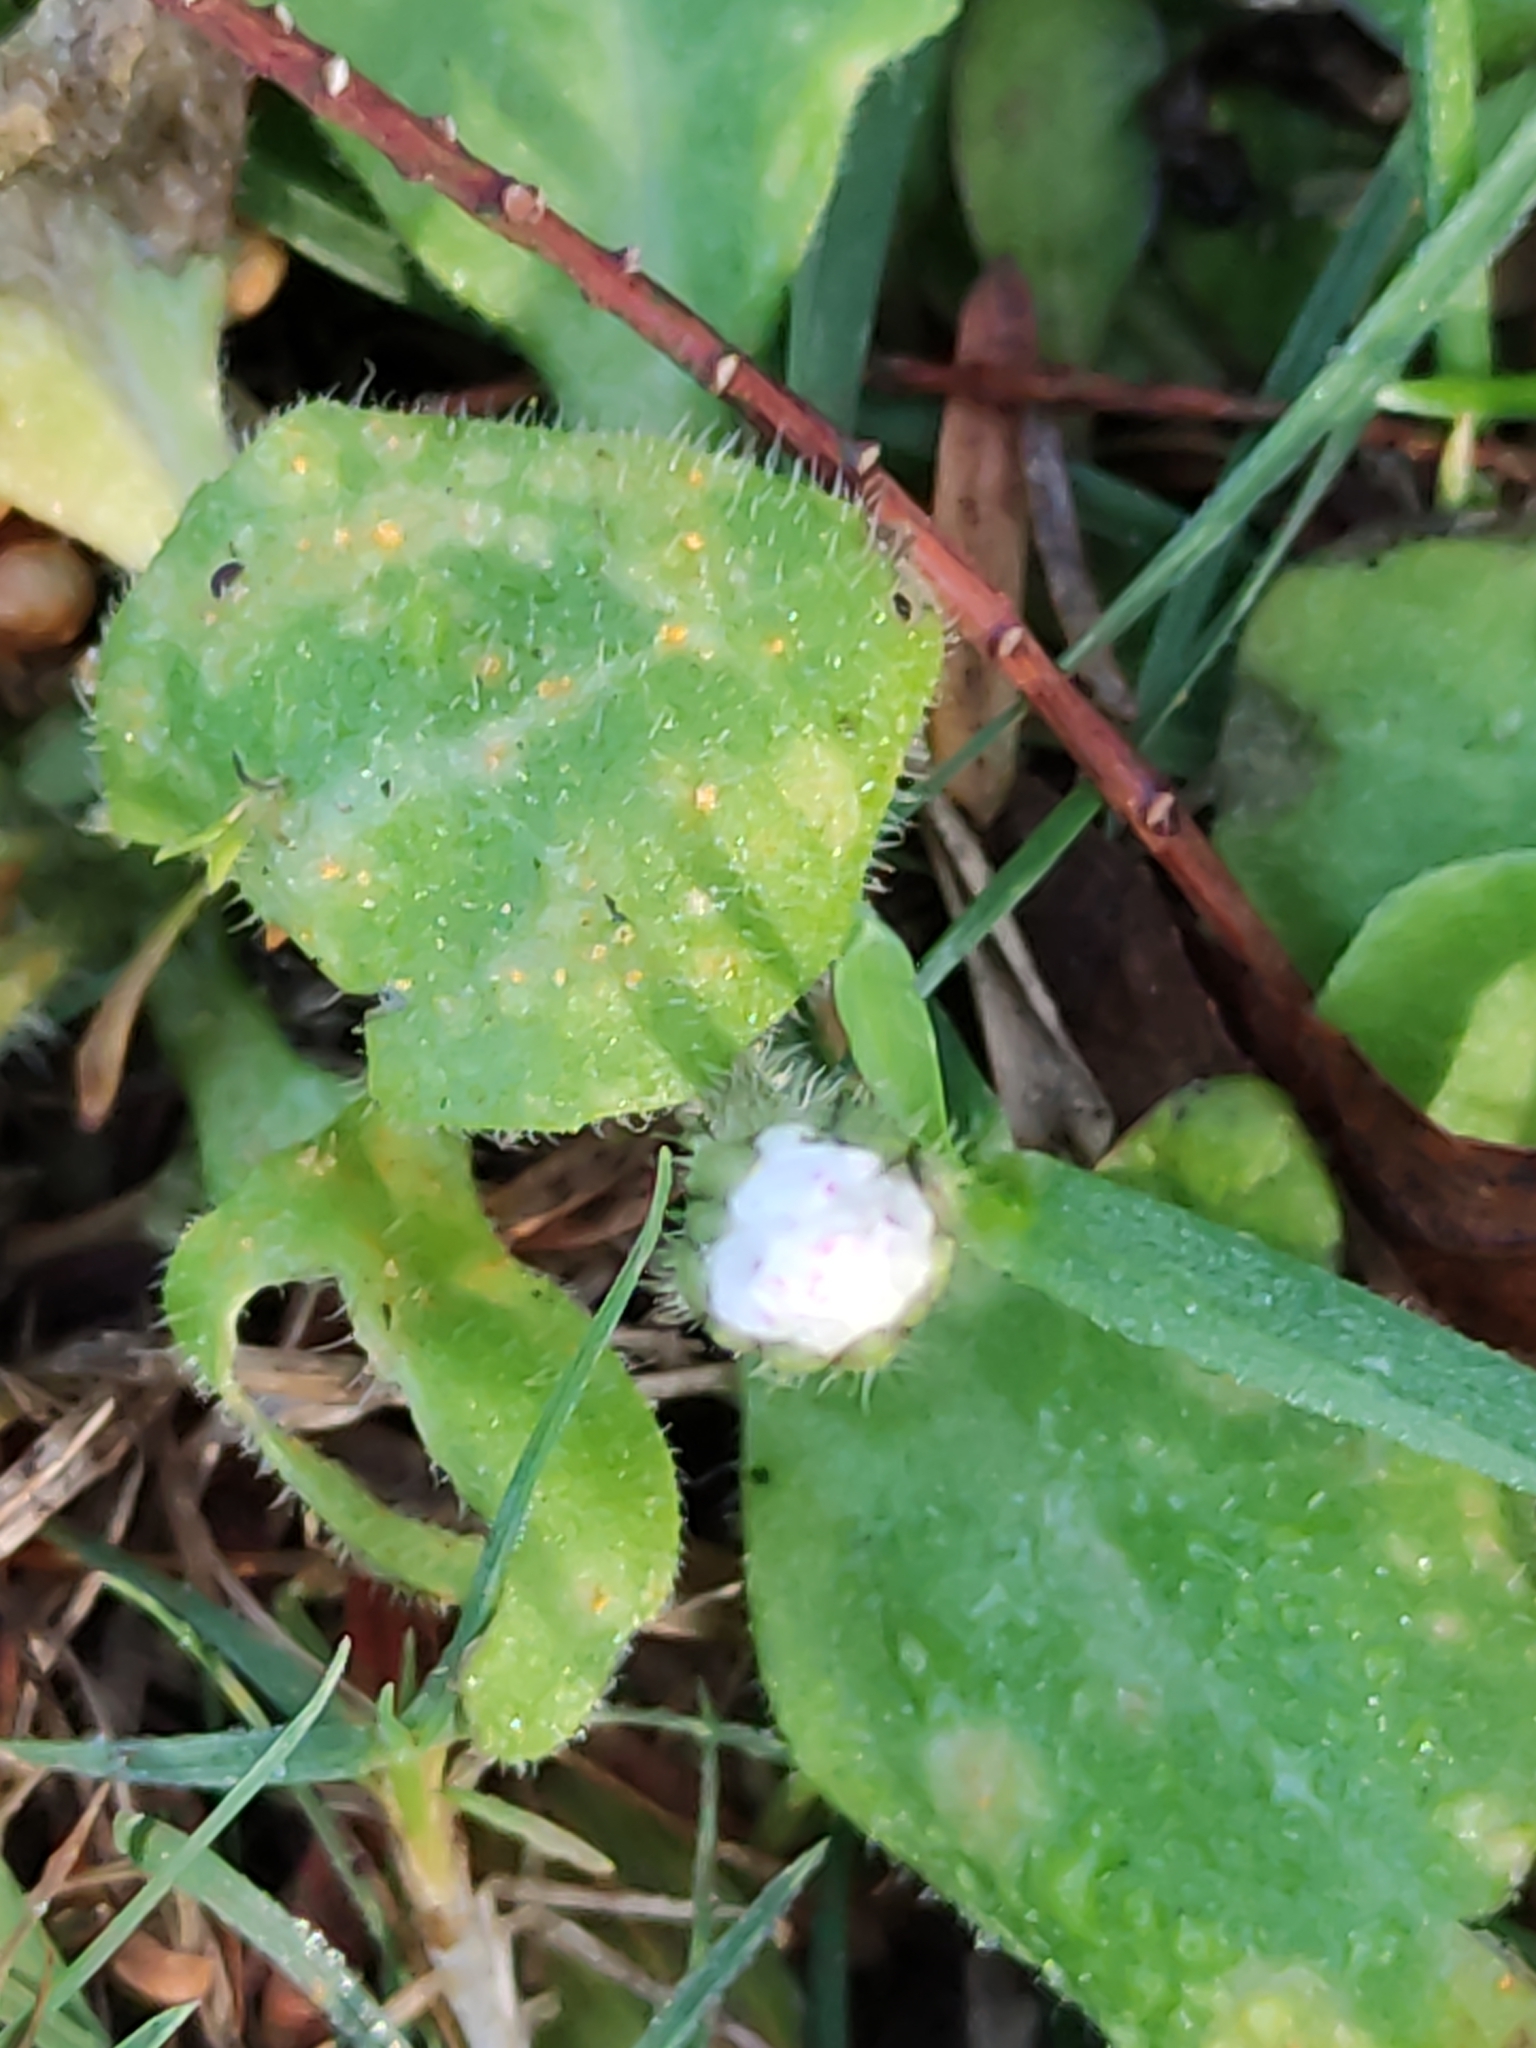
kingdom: Plantae
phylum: Tracheophyta
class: Magnoliopsida
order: Asterales
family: Asteraceae
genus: Bellis
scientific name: Bellis perennis
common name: Lawndaisy
